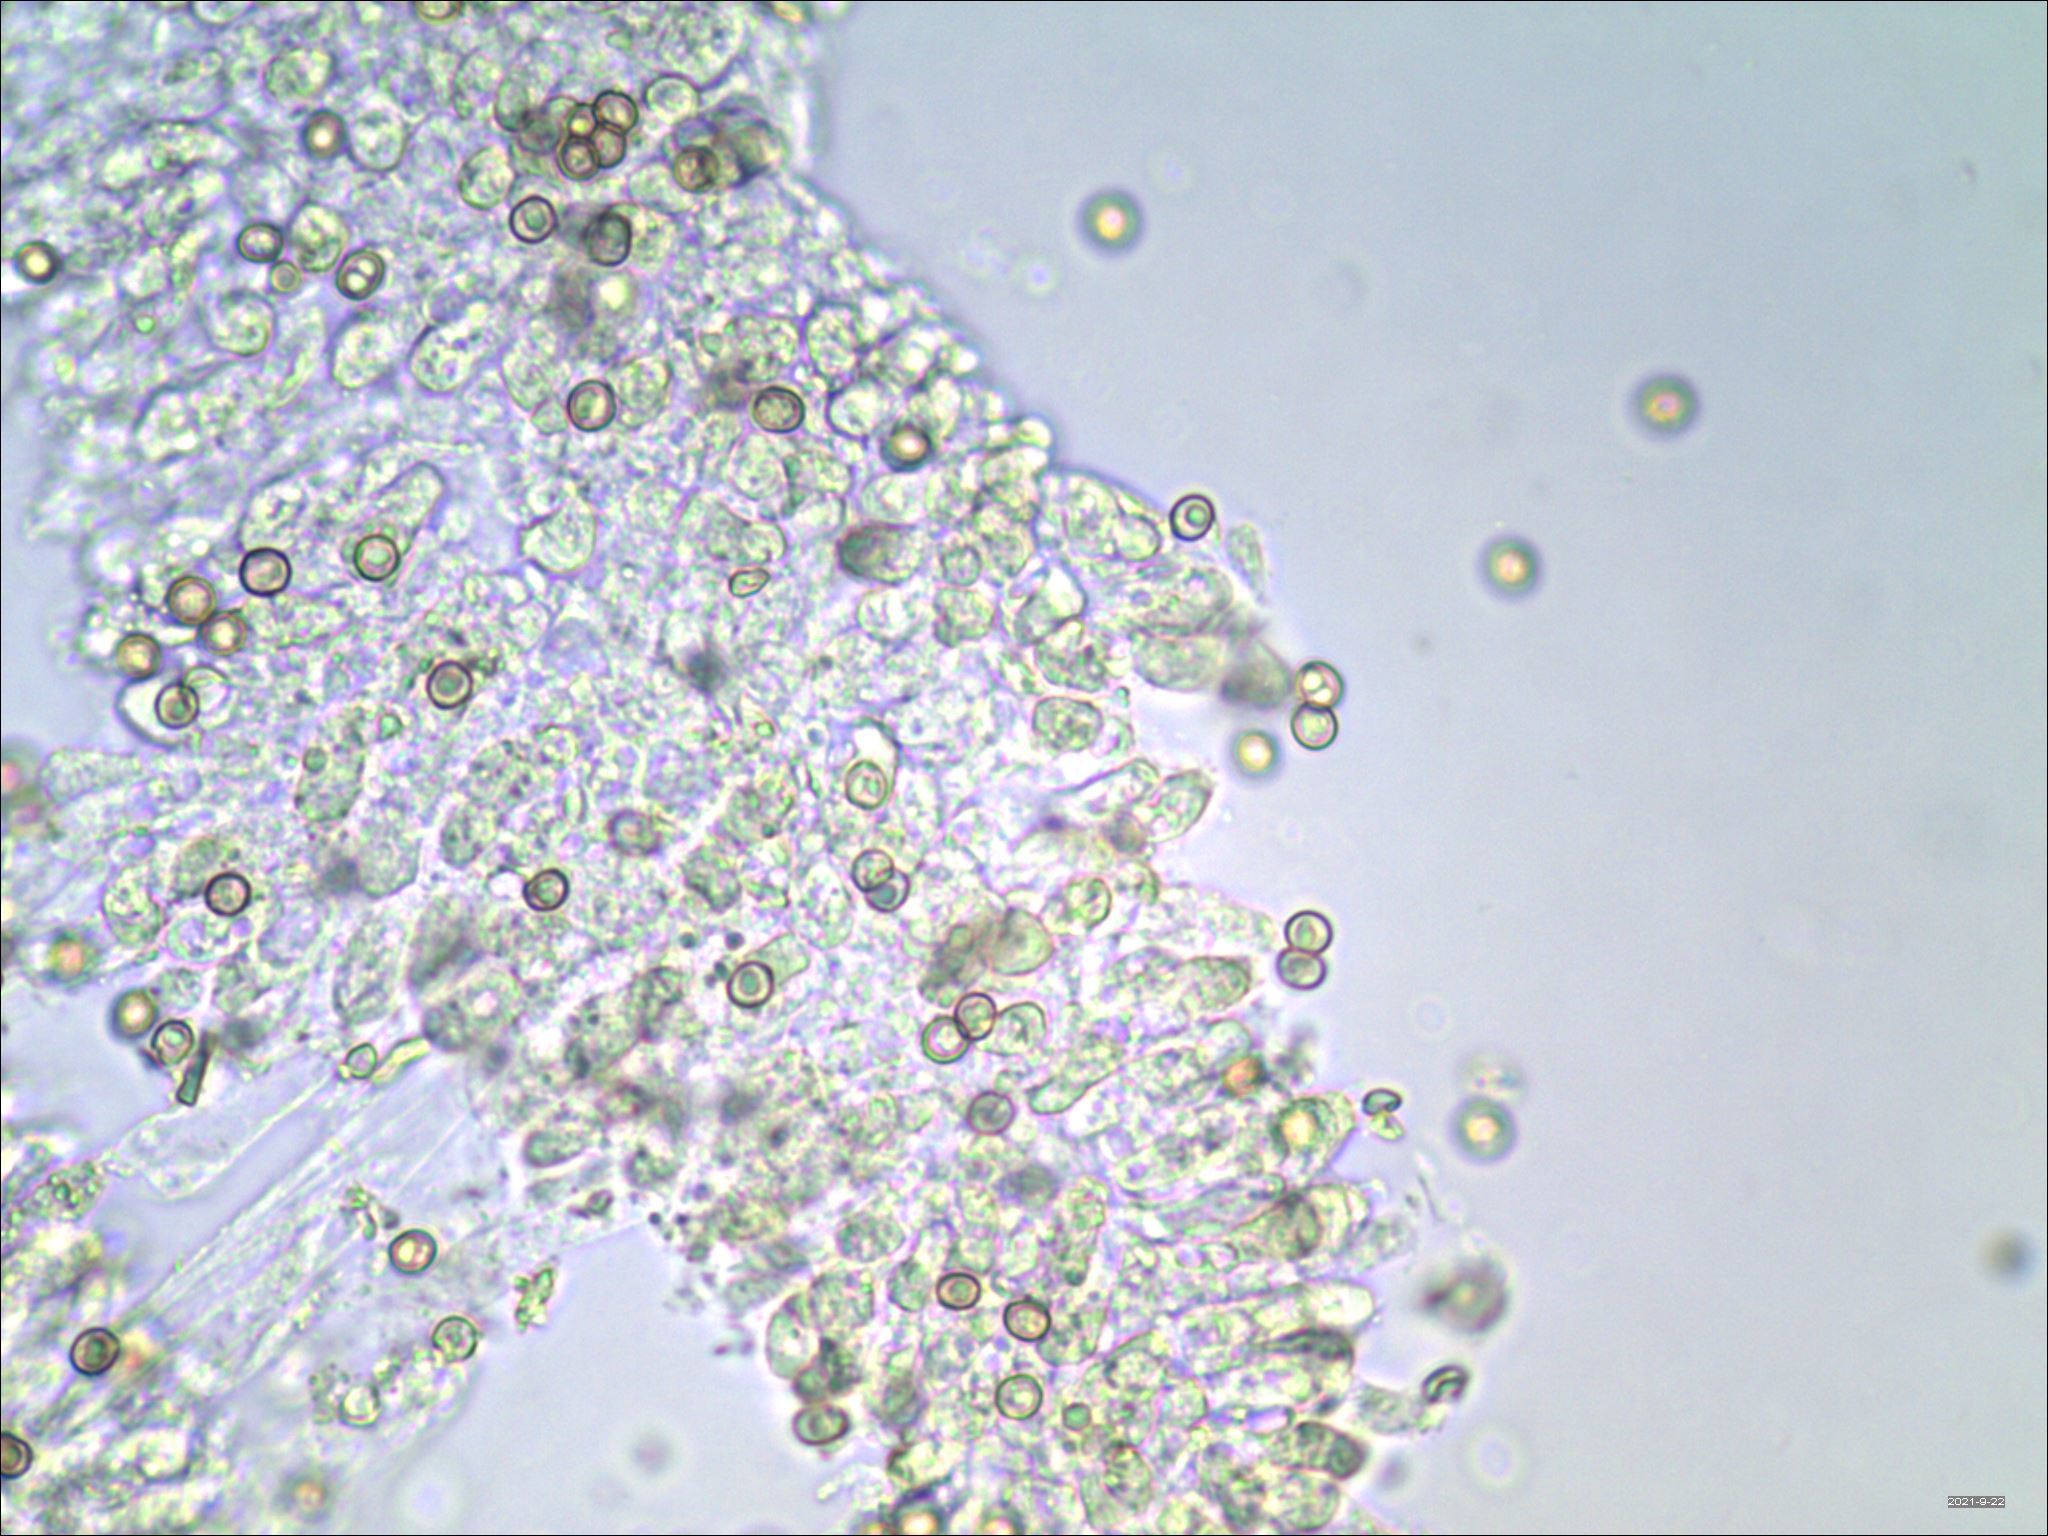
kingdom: Fungi
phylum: Basidiomycota
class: Agaricomycetes
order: Agaricales
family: Pluteaceae
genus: Pluteus
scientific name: Pluteus chrysophlebius
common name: Yellow deer mushroom
